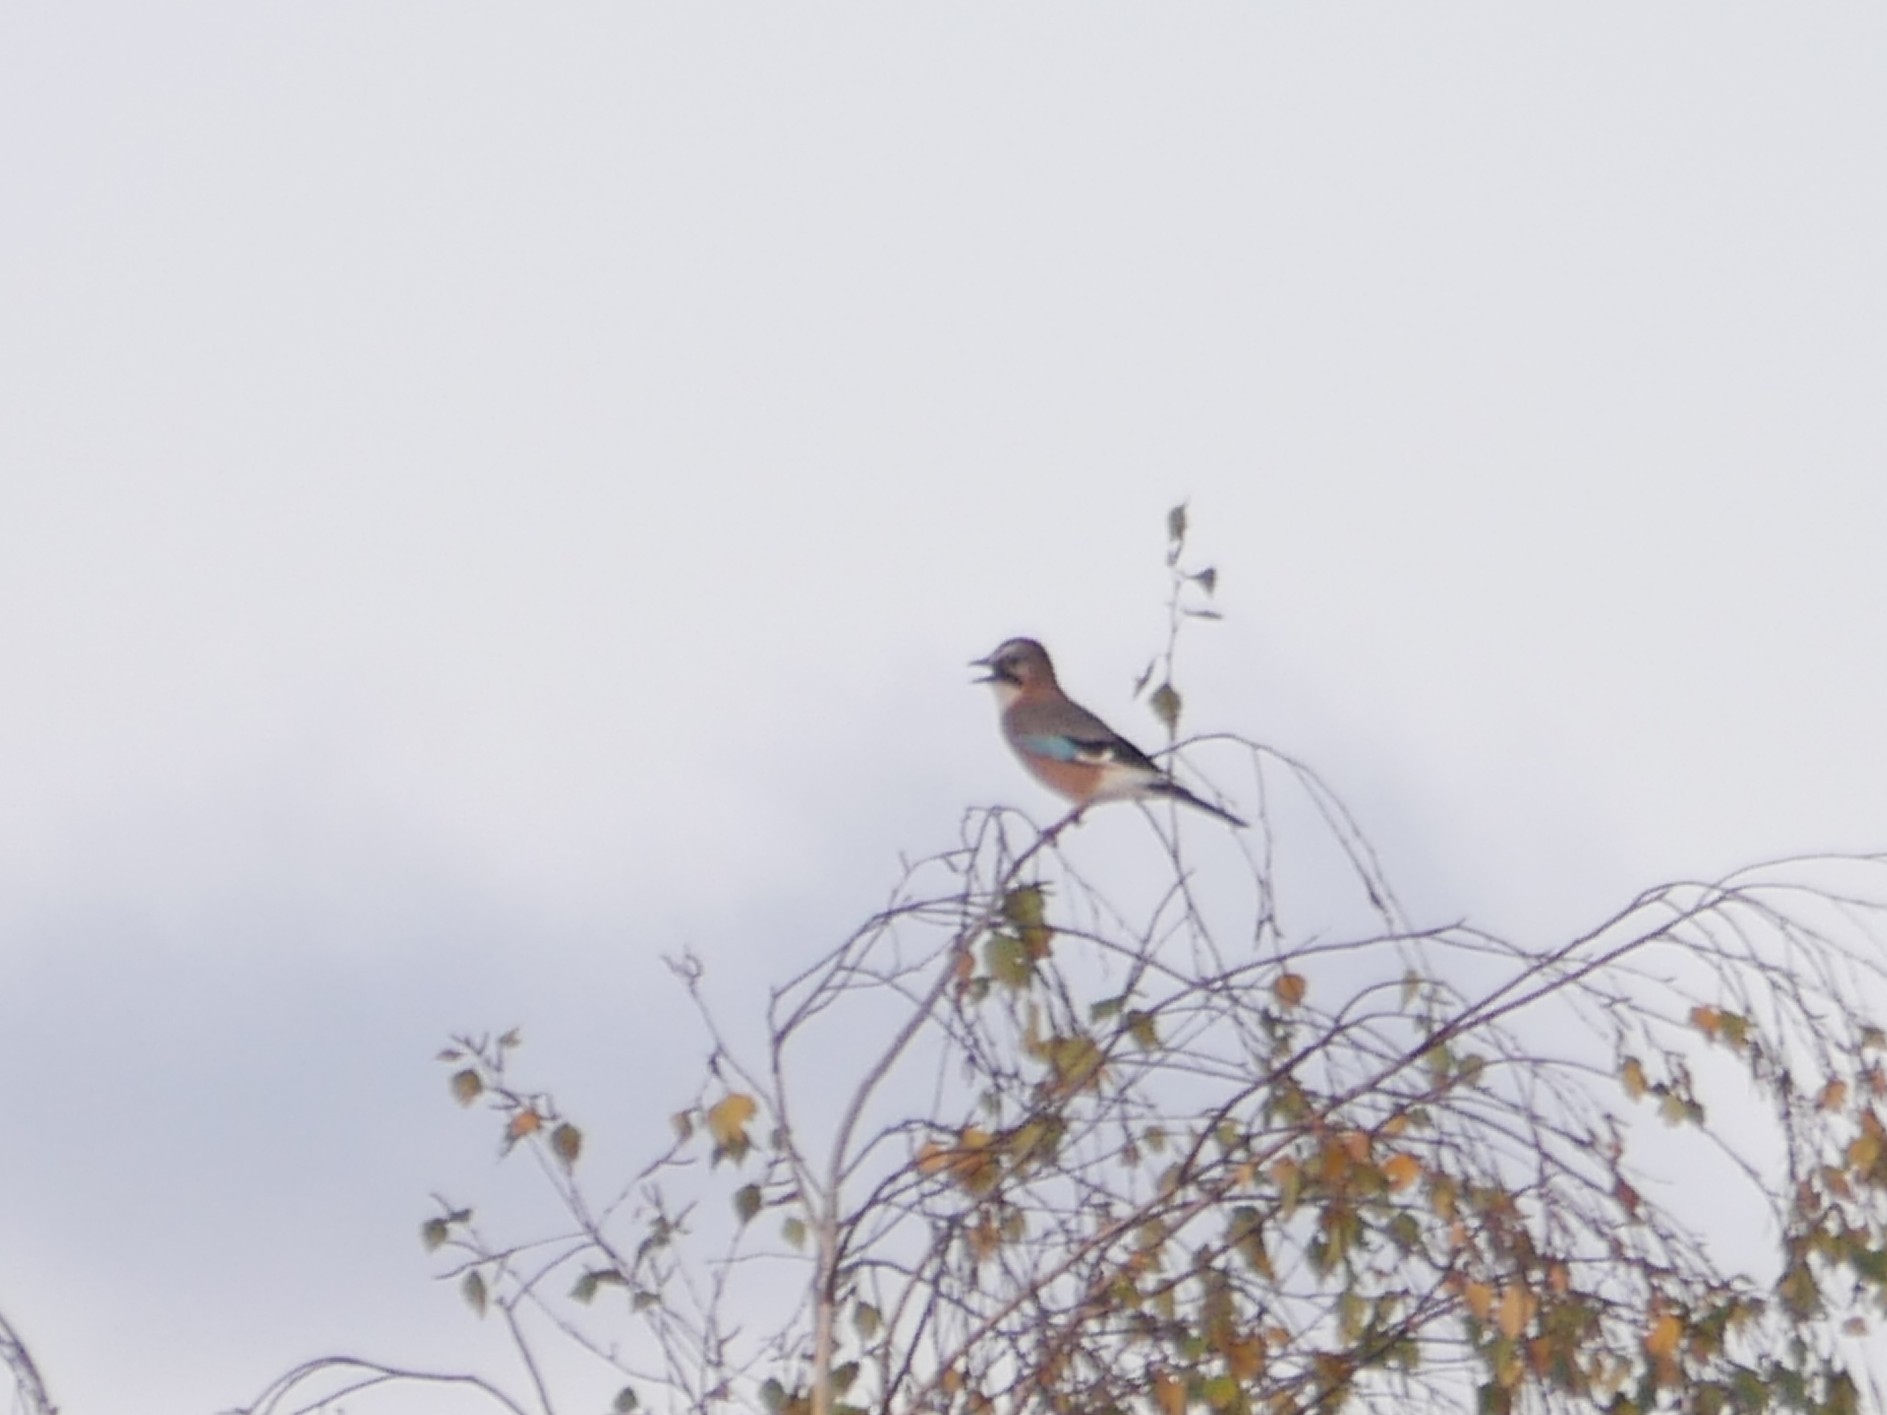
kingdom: Animalia
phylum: Chordata
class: Aves
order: Passeriformes
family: Corvidae
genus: Garrulus
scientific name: Garrulus glandarius
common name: Eurasian jay
